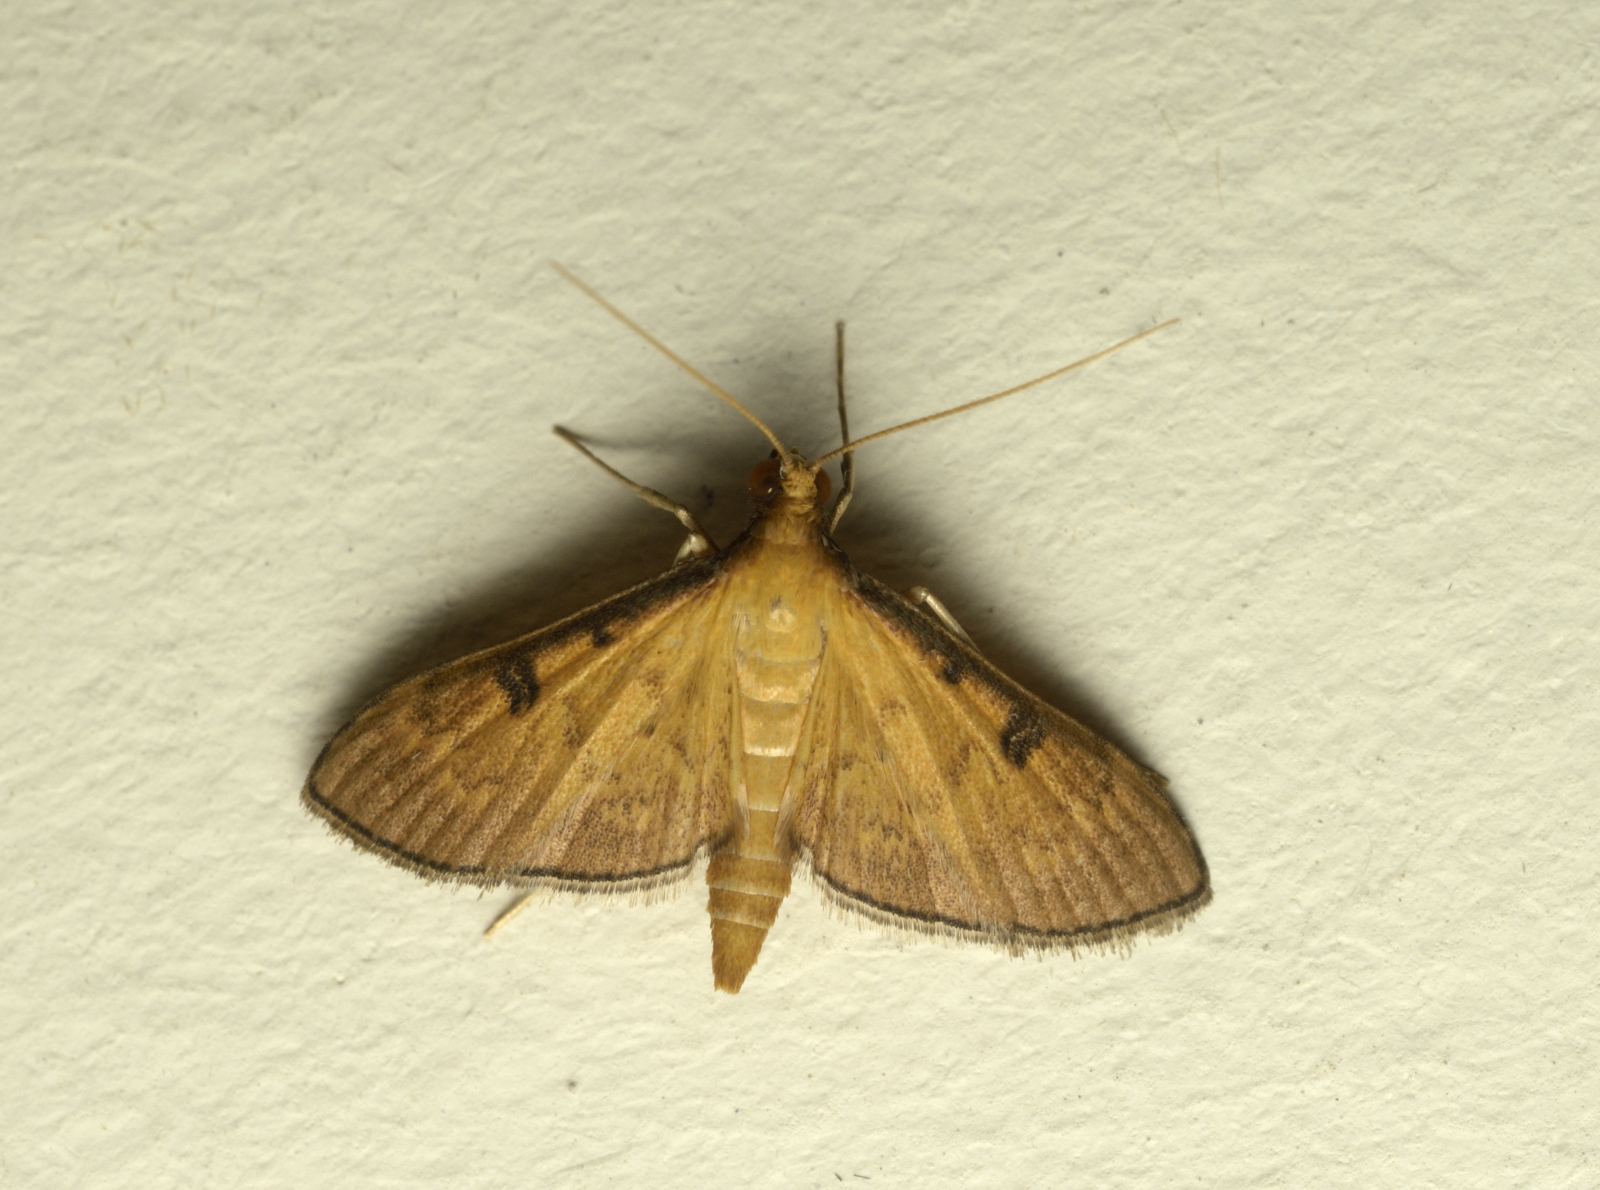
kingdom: Animalia
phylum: Arthropoda
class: Insecta
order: Lepidoptera
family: Crambidae
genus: Tatobotys
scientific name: Tatobotys biannulalis
